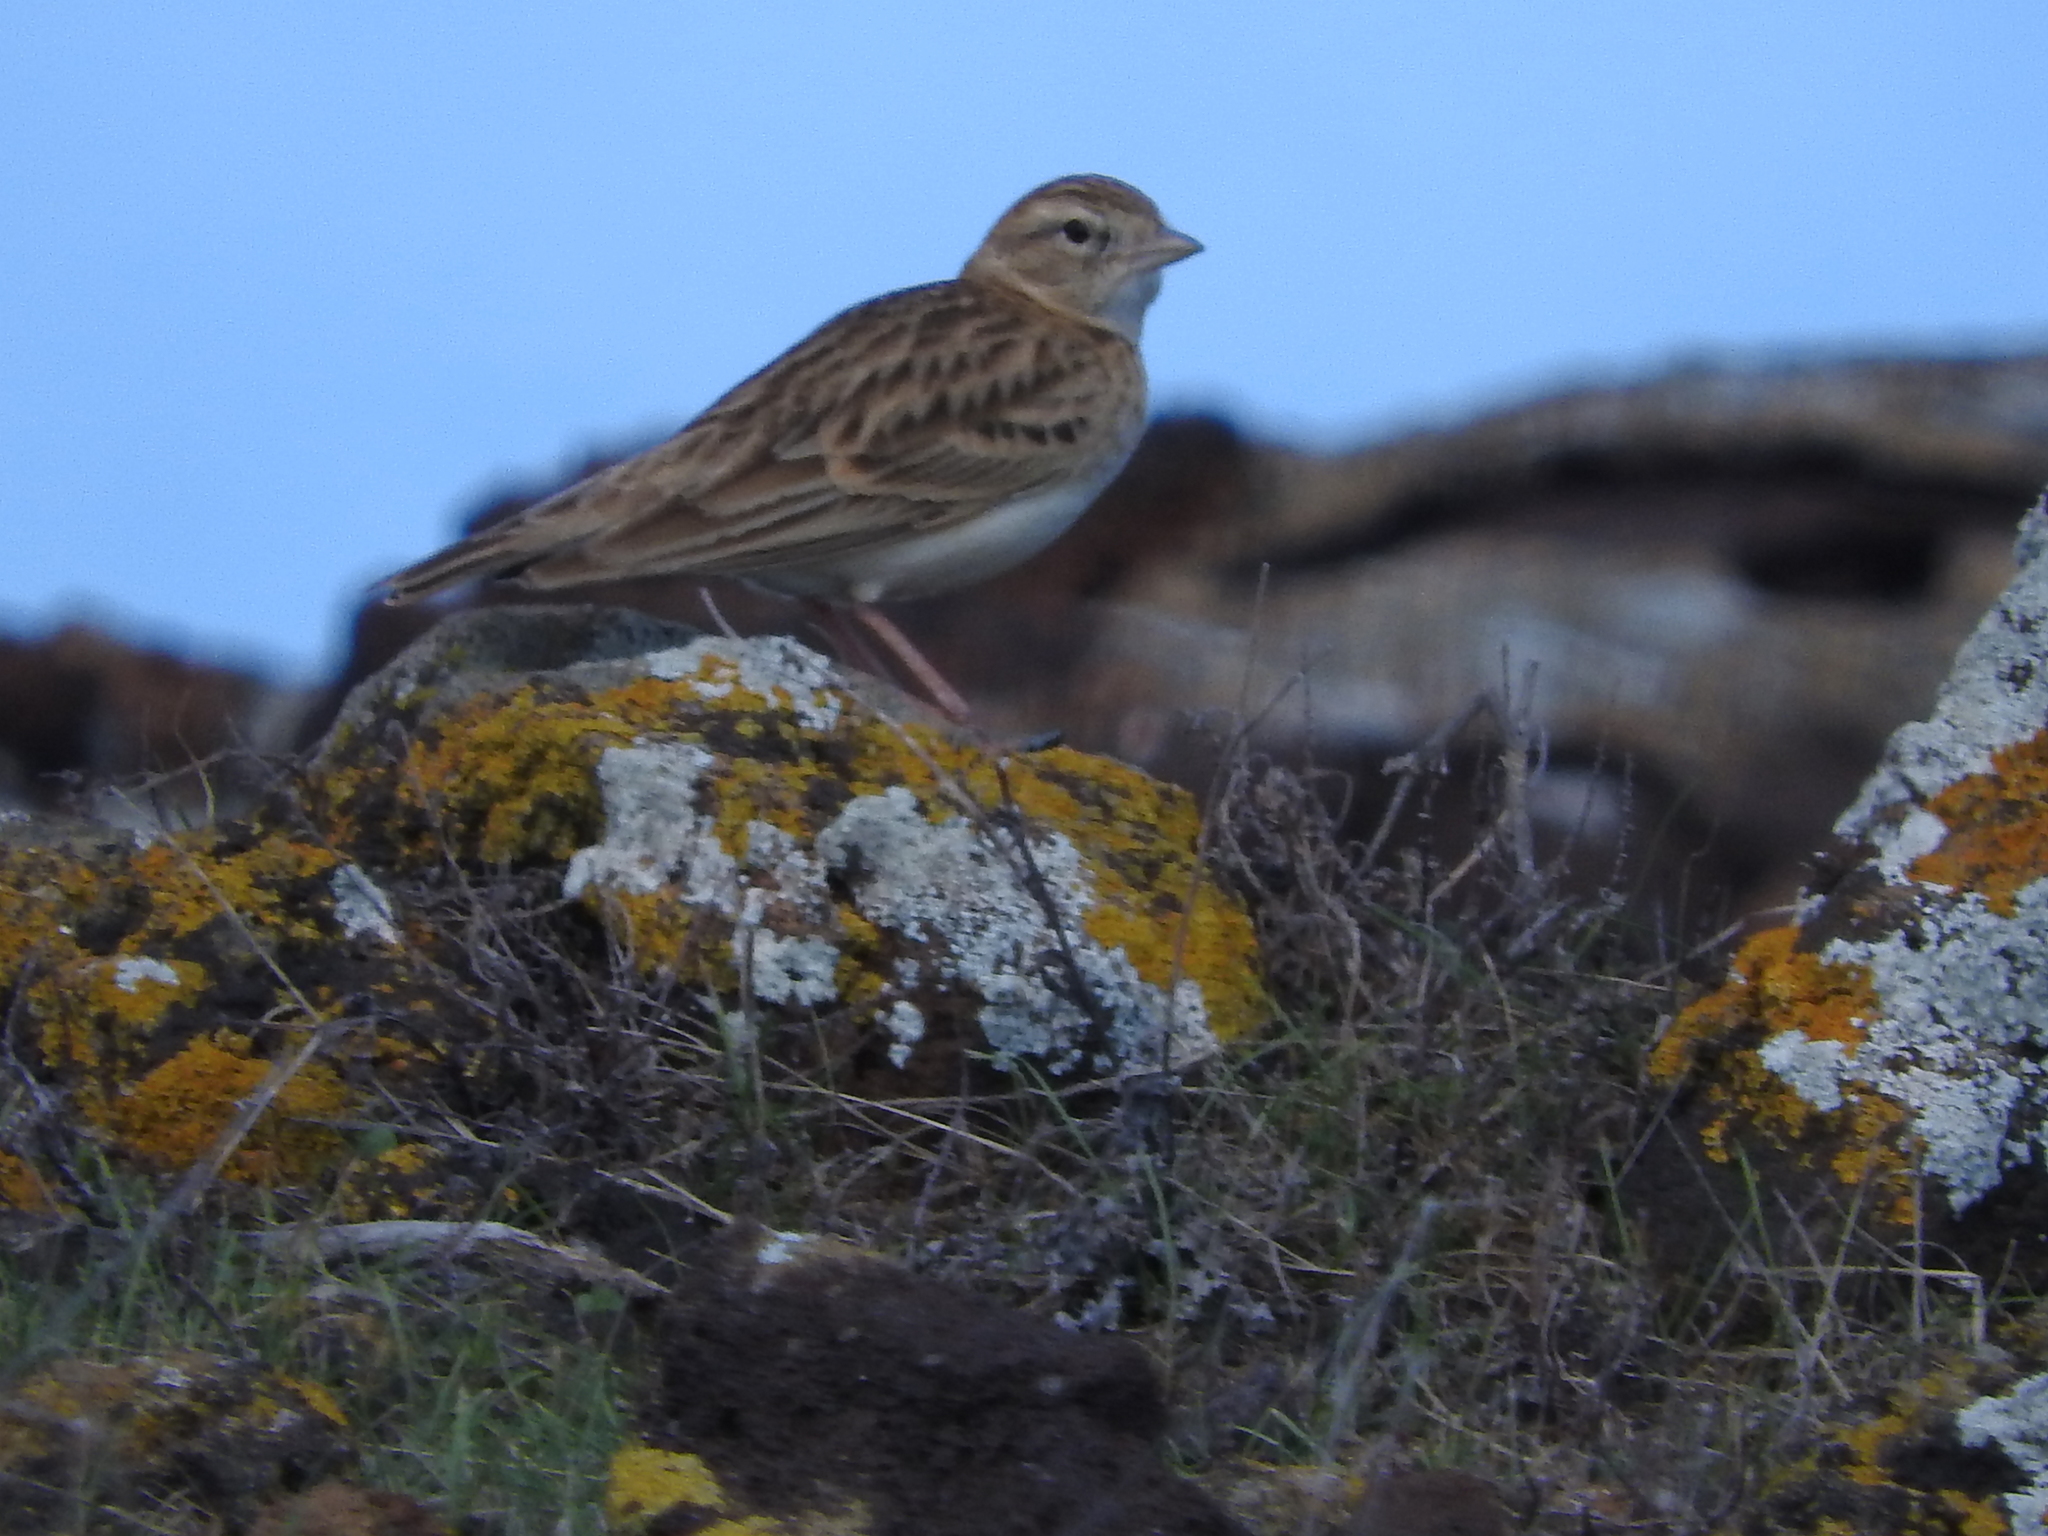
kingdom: Animalia
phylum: Chordata
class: Aves
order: Passeriformes
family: Alaudidae
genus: Calandrella
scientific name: Calandrella brachydactyla
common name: Greater short-toed lark
